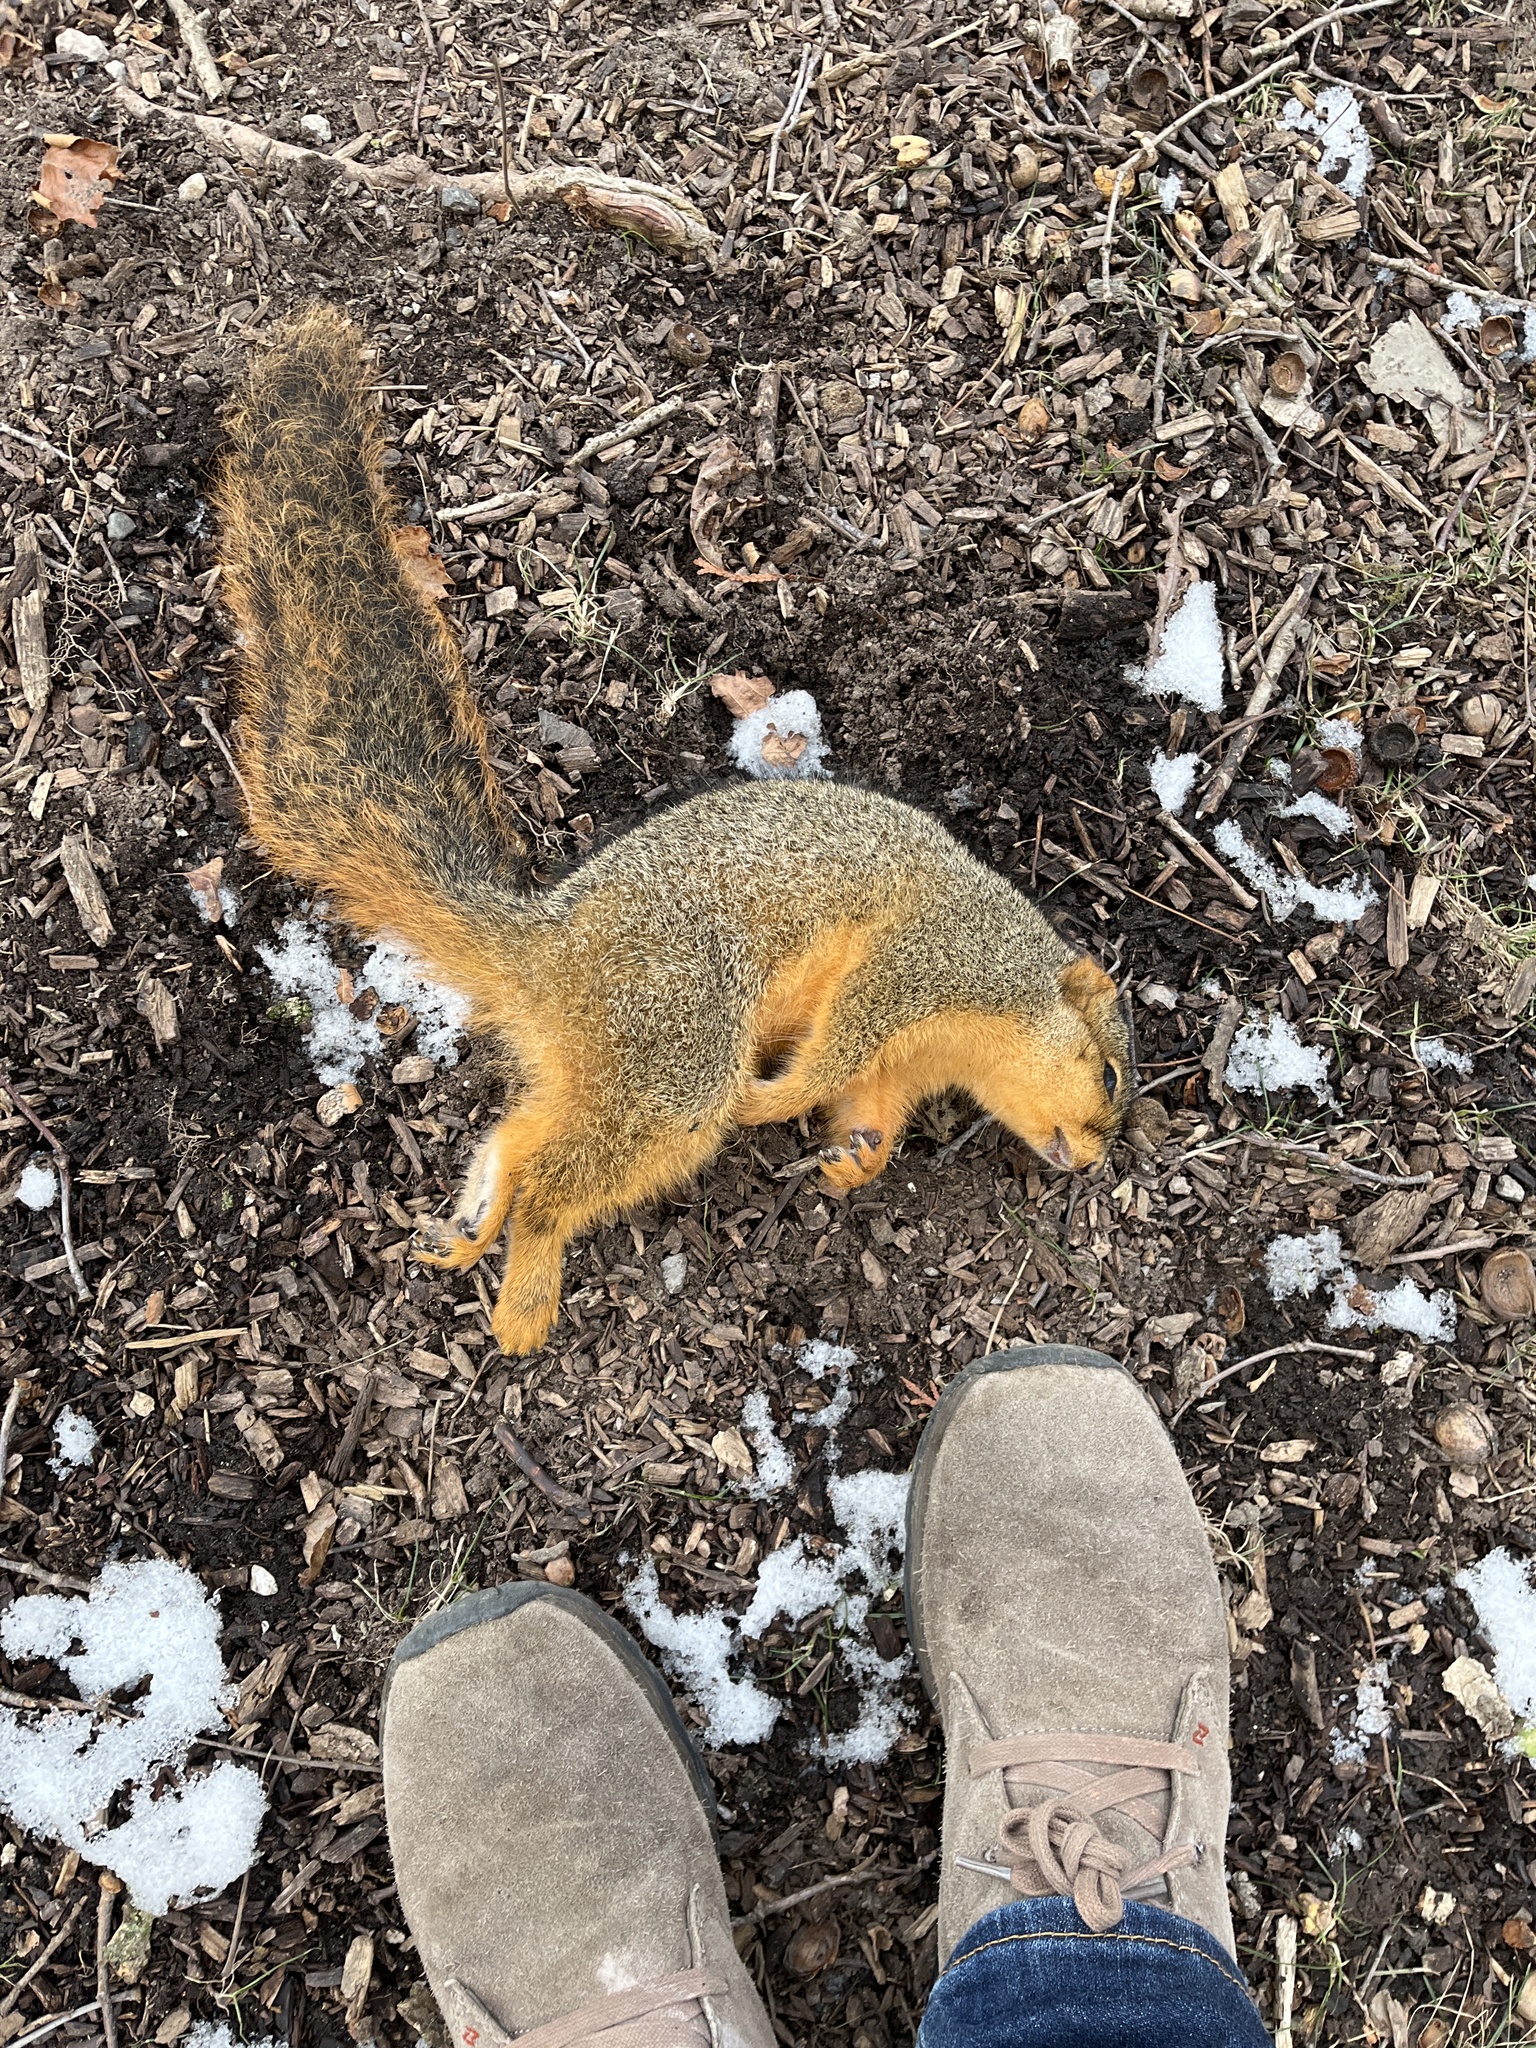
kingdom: Animalia
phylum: Chordata
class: Mammalia
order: Rodentia
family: Sciuridae
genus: Sciurus
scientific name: Sciurus niger
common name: Fox squirrel
